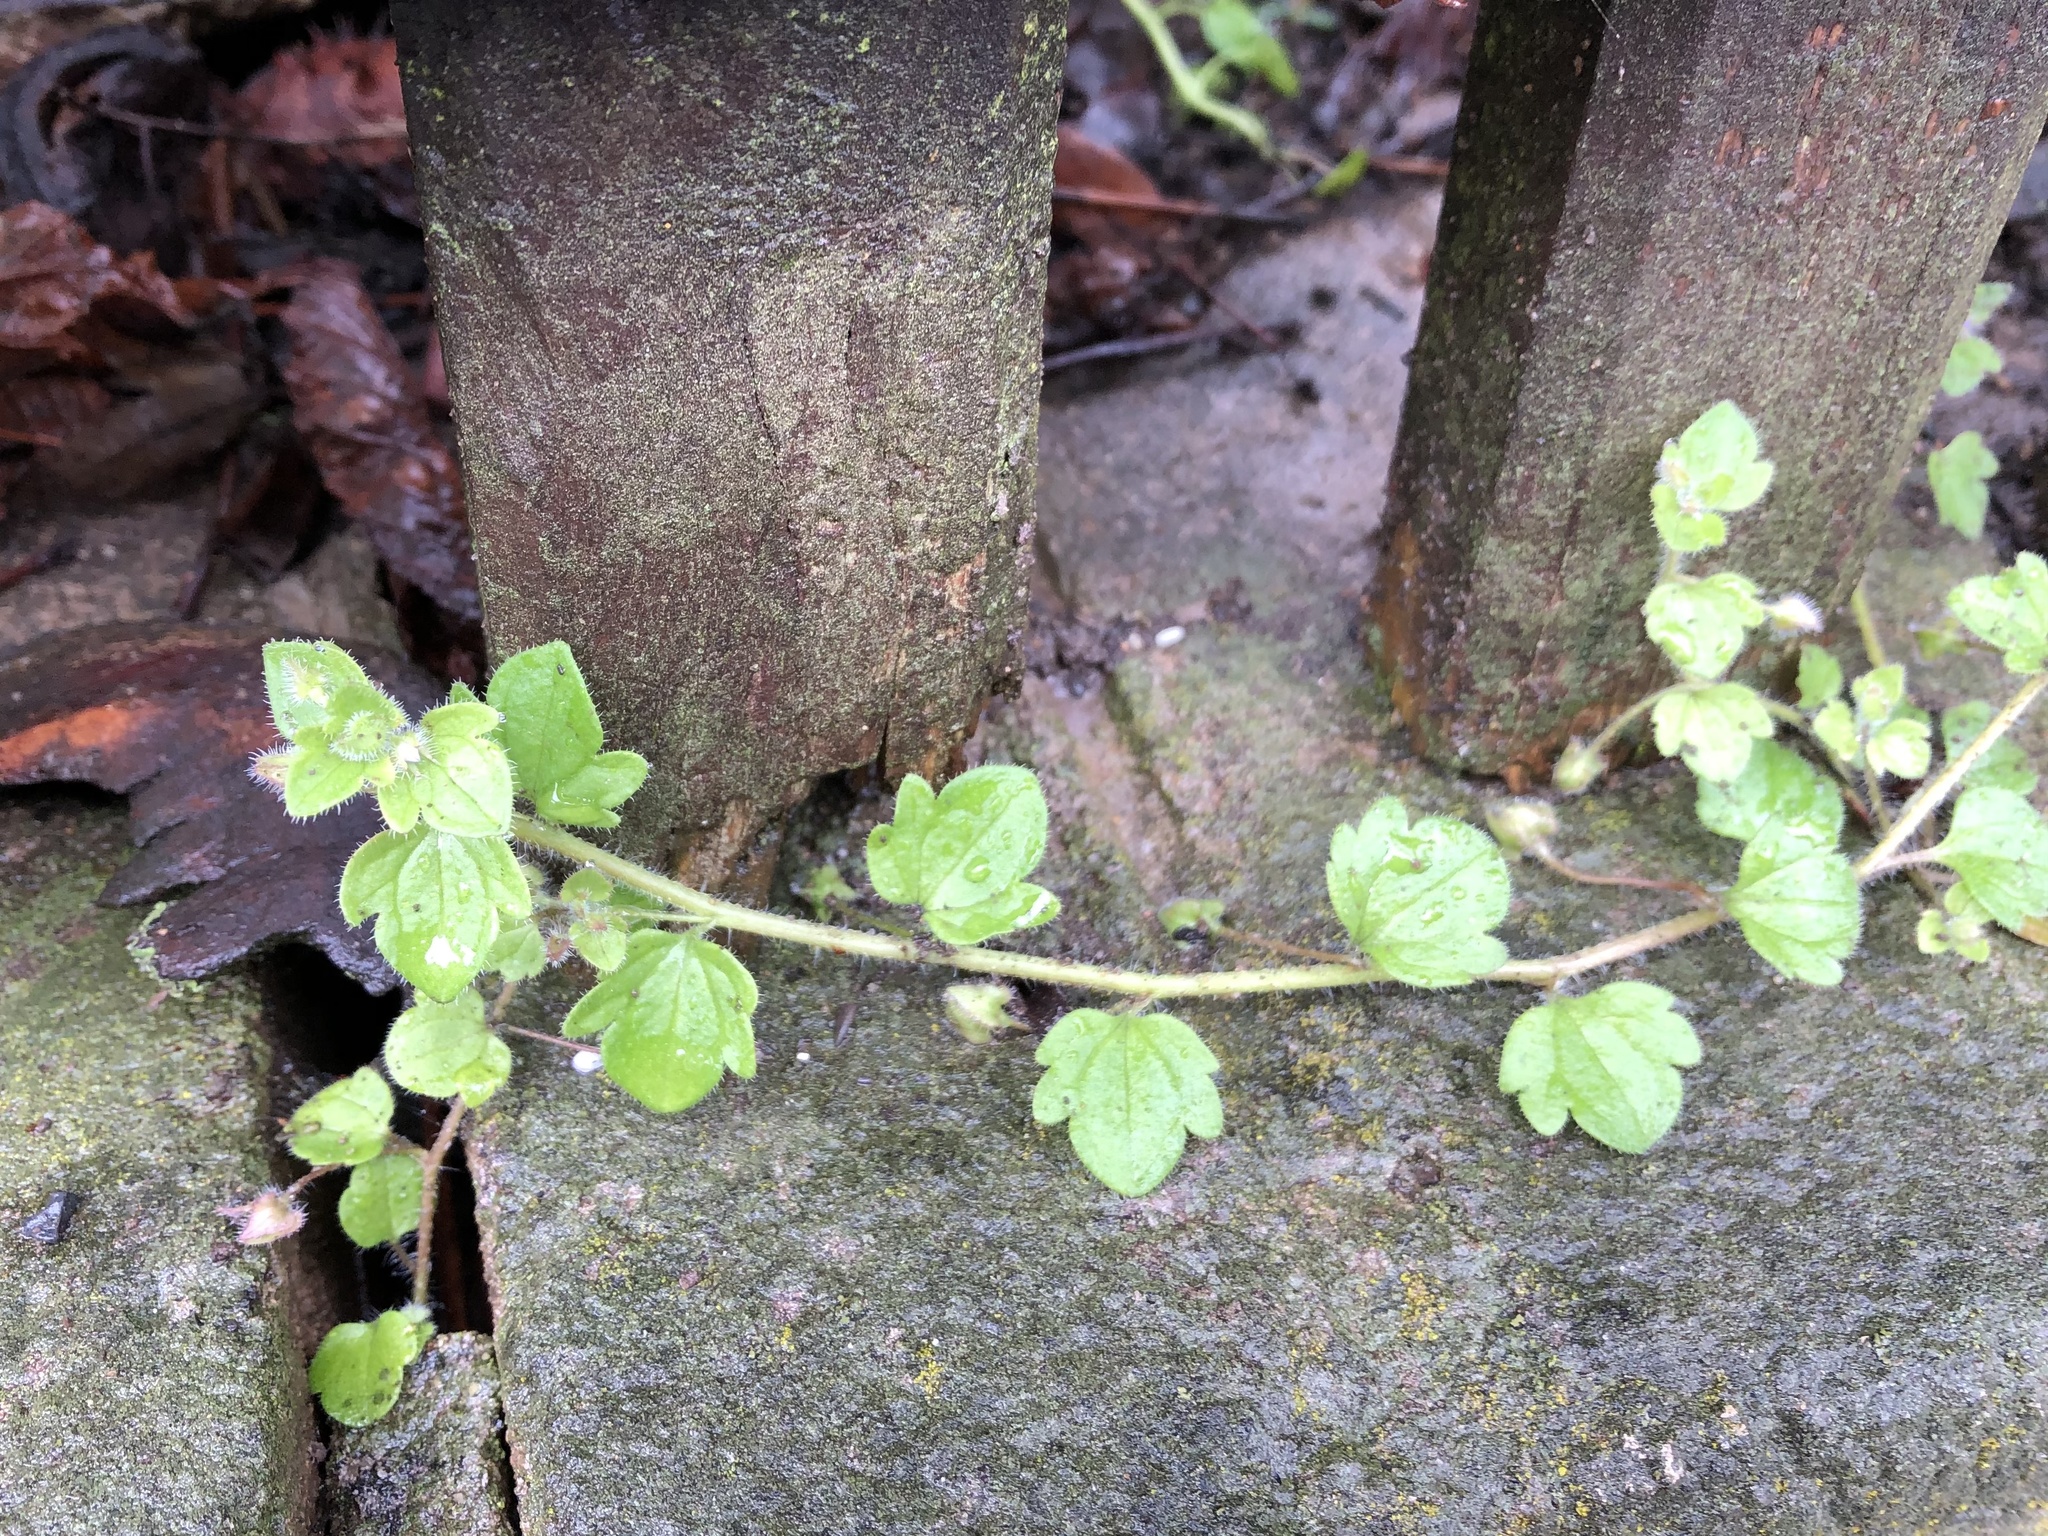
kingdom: Plantae
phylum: Tracheophyta
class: Magnoliopsida
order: Lamiales
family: Plantaginaceae
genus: Veronica
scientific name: Veronica sublobata
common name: False ivy-leaved speedwell
